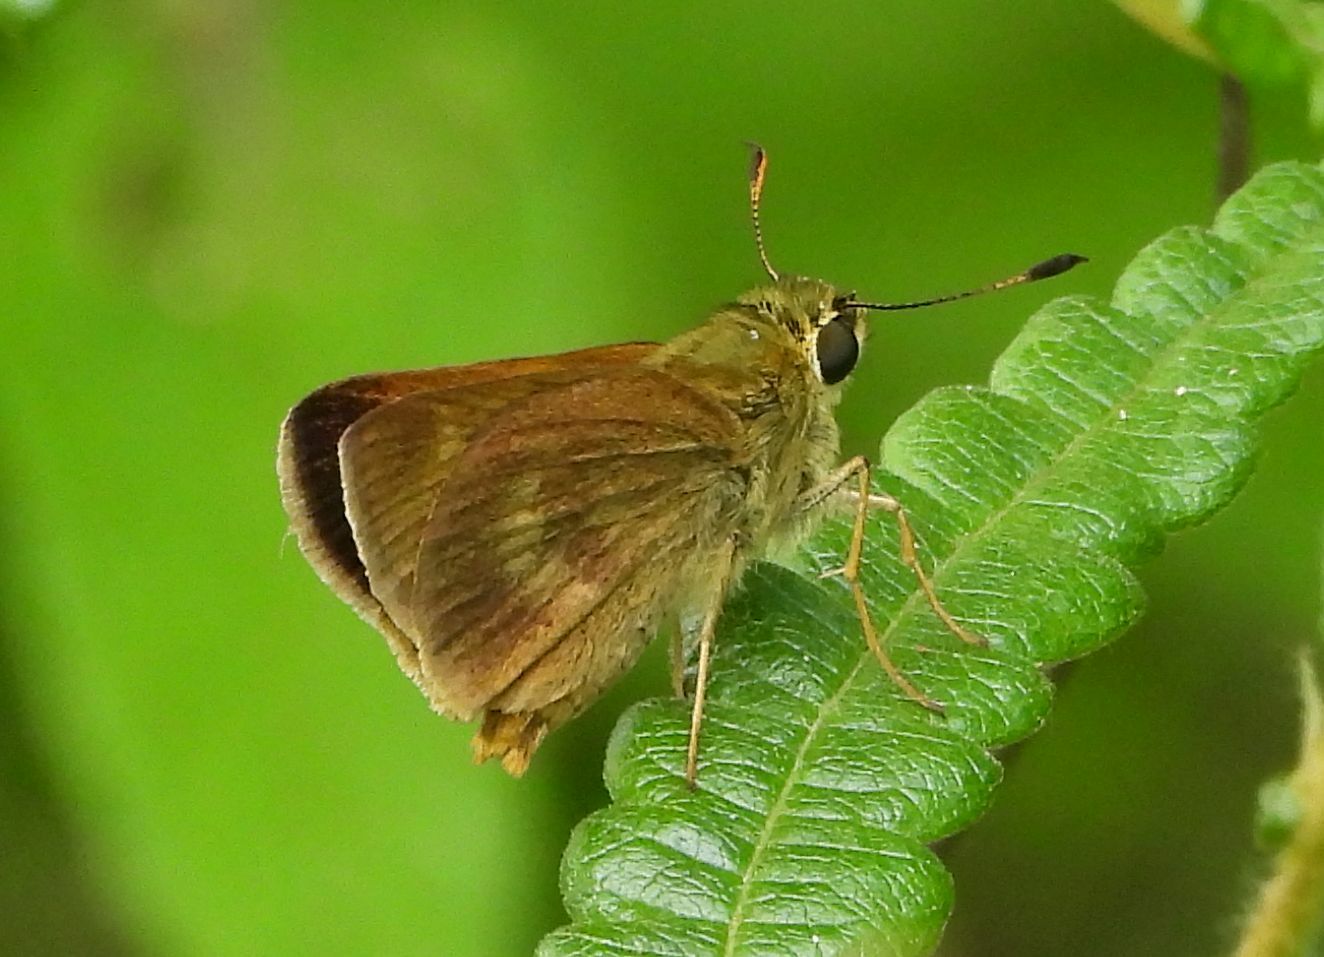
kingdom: Animalia
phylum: Arthropoda
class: Insecta
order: Lepidoptera
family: Hesperiidae
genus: Polites
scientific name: Polites egeremet
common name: Northern broken-dash
